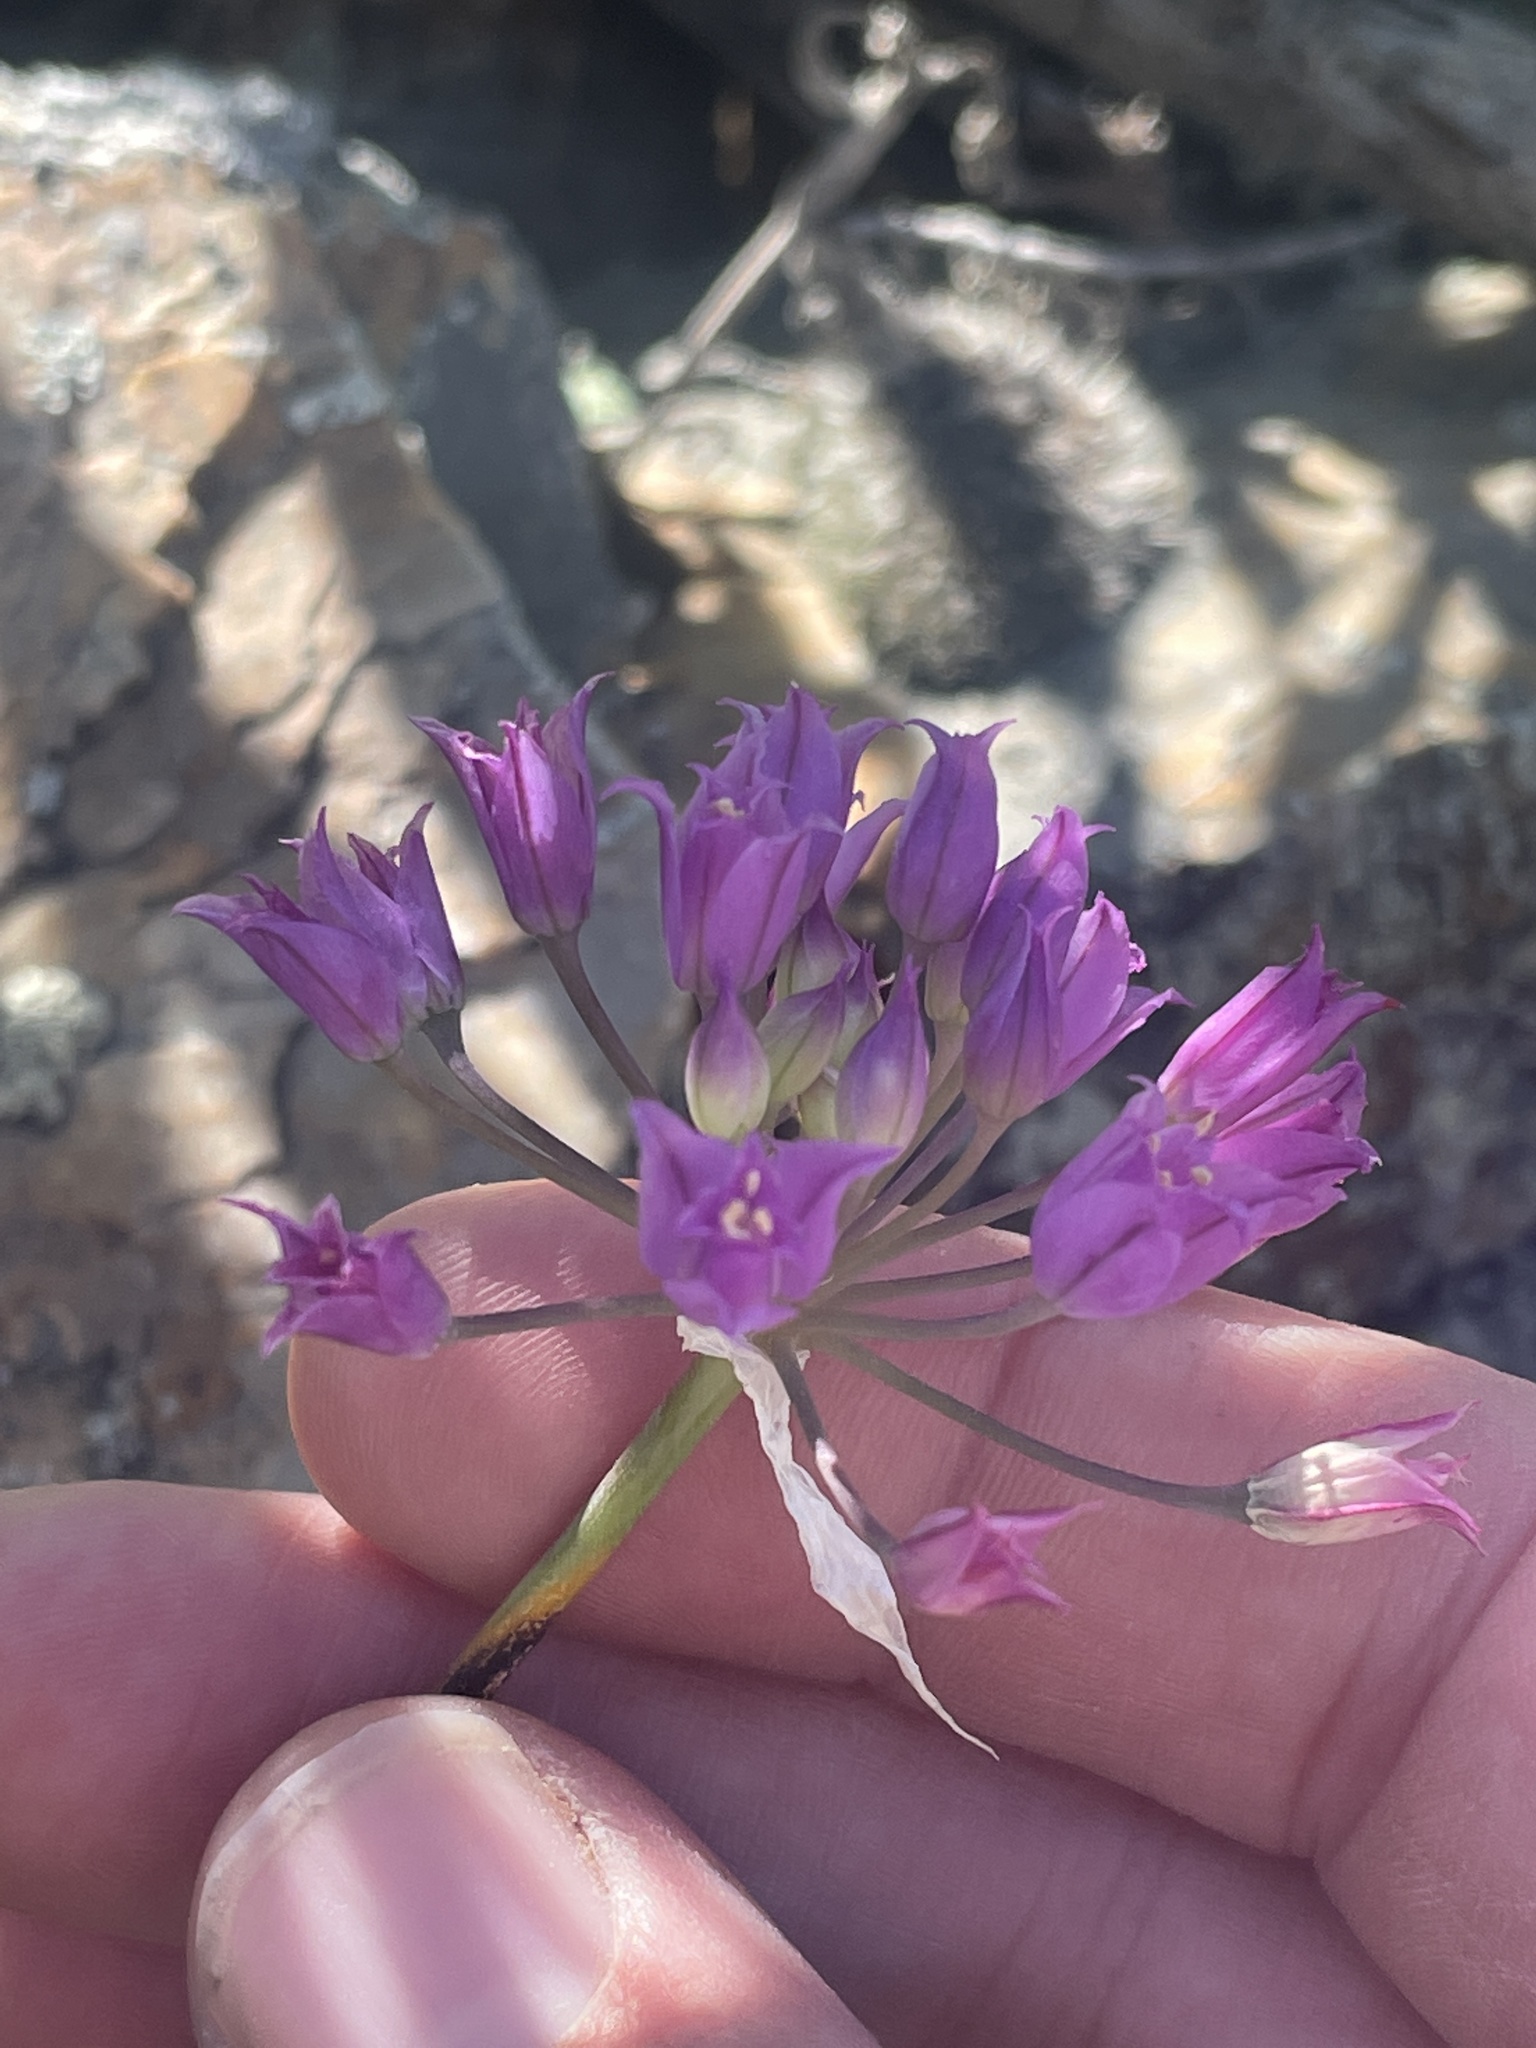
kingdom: Plantae
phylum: Tracheophyta
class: Liliopsida
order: Asparagales
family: Amaryllidaceae
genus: Allium
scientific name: Allium acuminatum
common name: Hooker's onion
